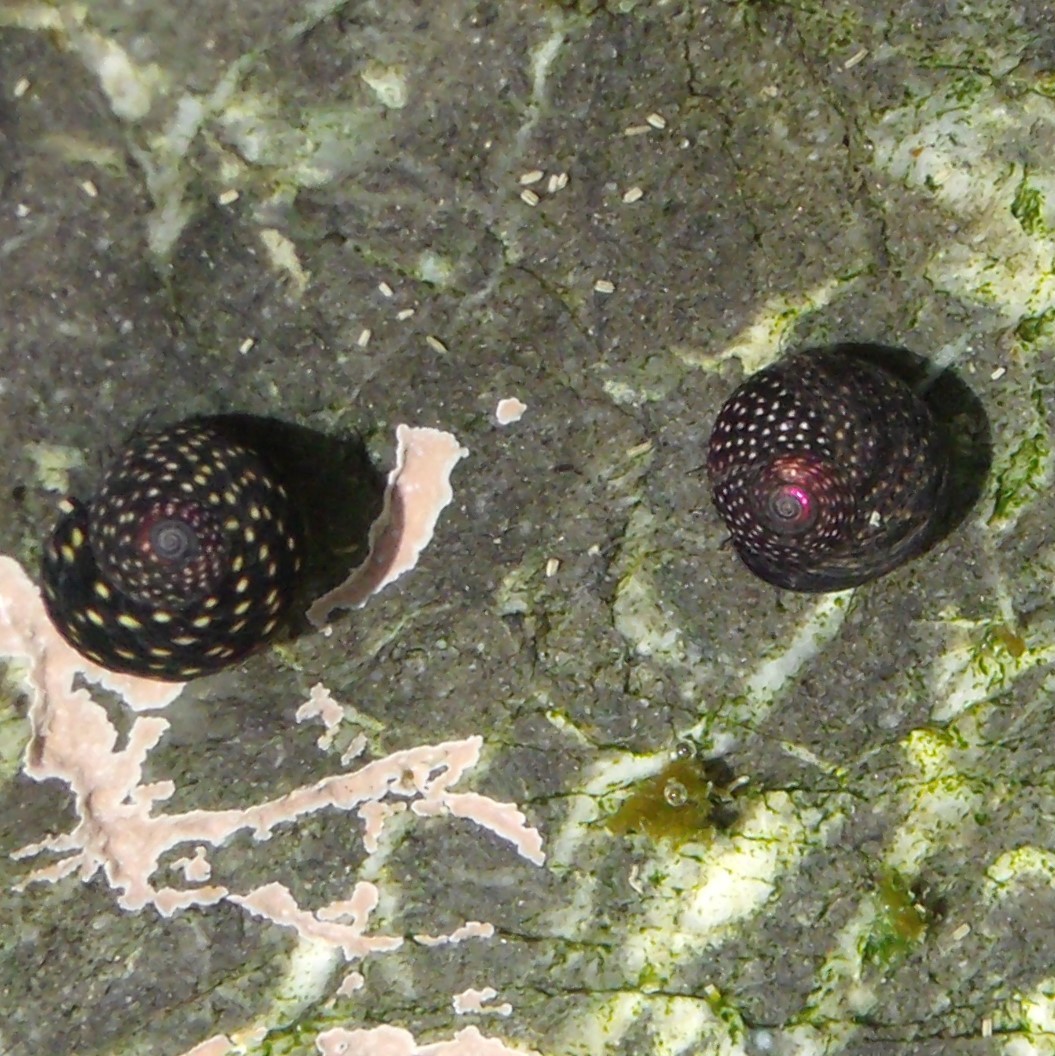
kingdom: Animalia
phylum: Mollusca
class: Gastropoda
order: Trochida
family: Trochidae
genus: Diloma
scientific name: Diloma aridum
